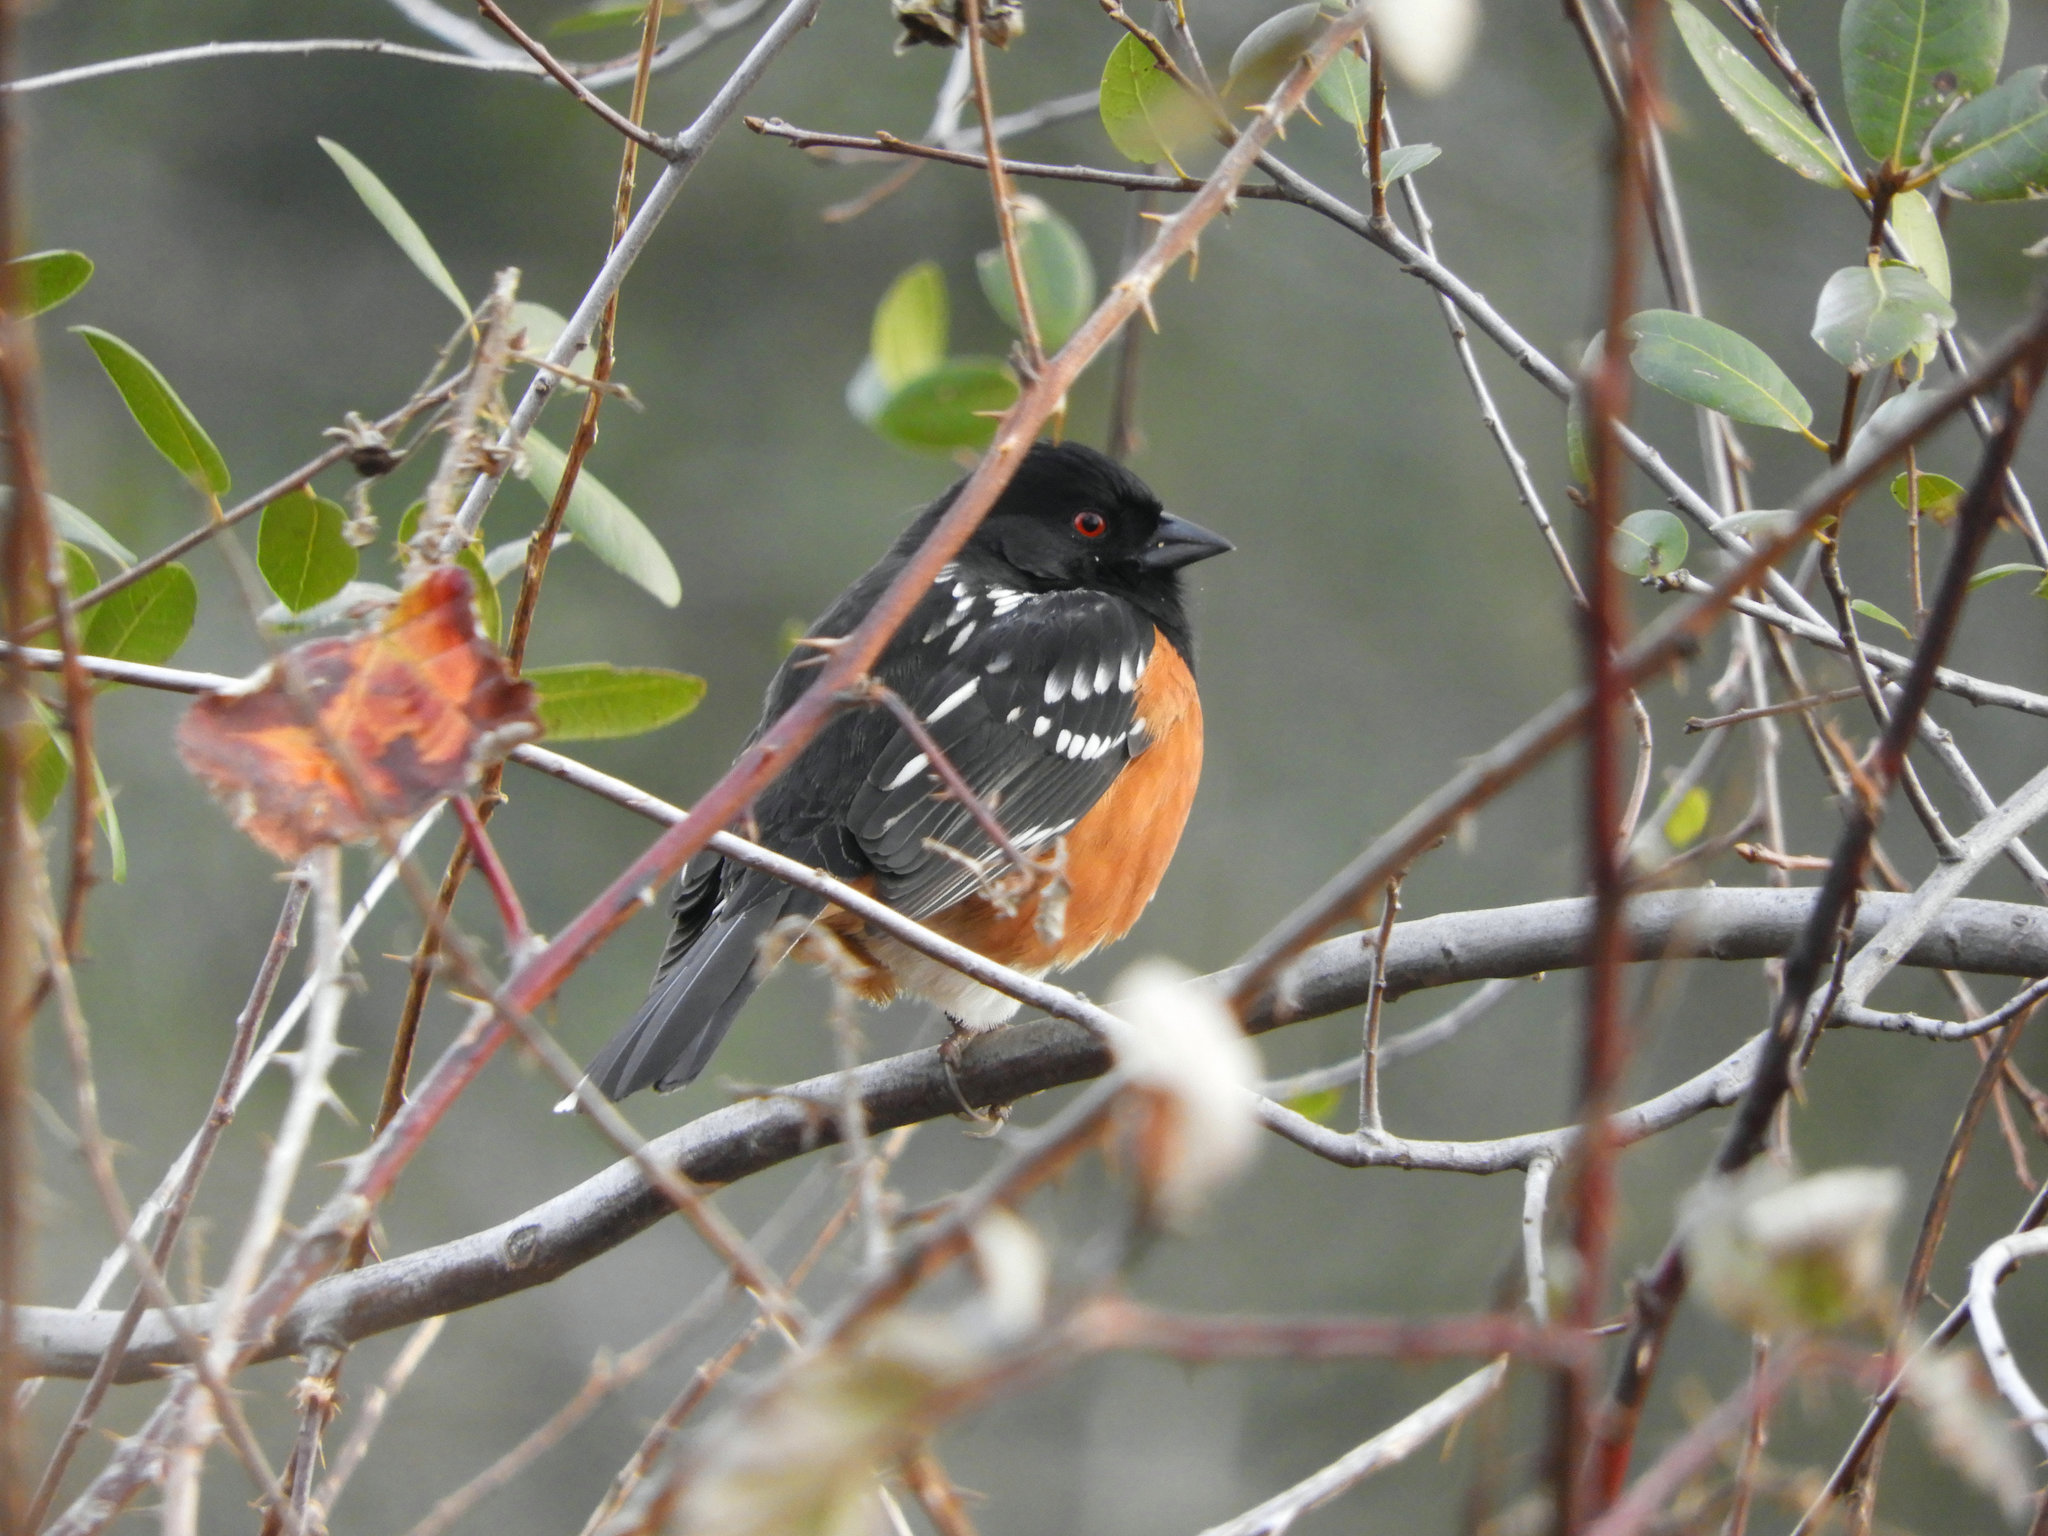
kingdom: Animalia
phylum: Chordata
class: Aves
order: Passeriformes
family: Passerellidae
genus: Pipilo
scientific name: Pipilo maculatus
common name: Spotted towhee
